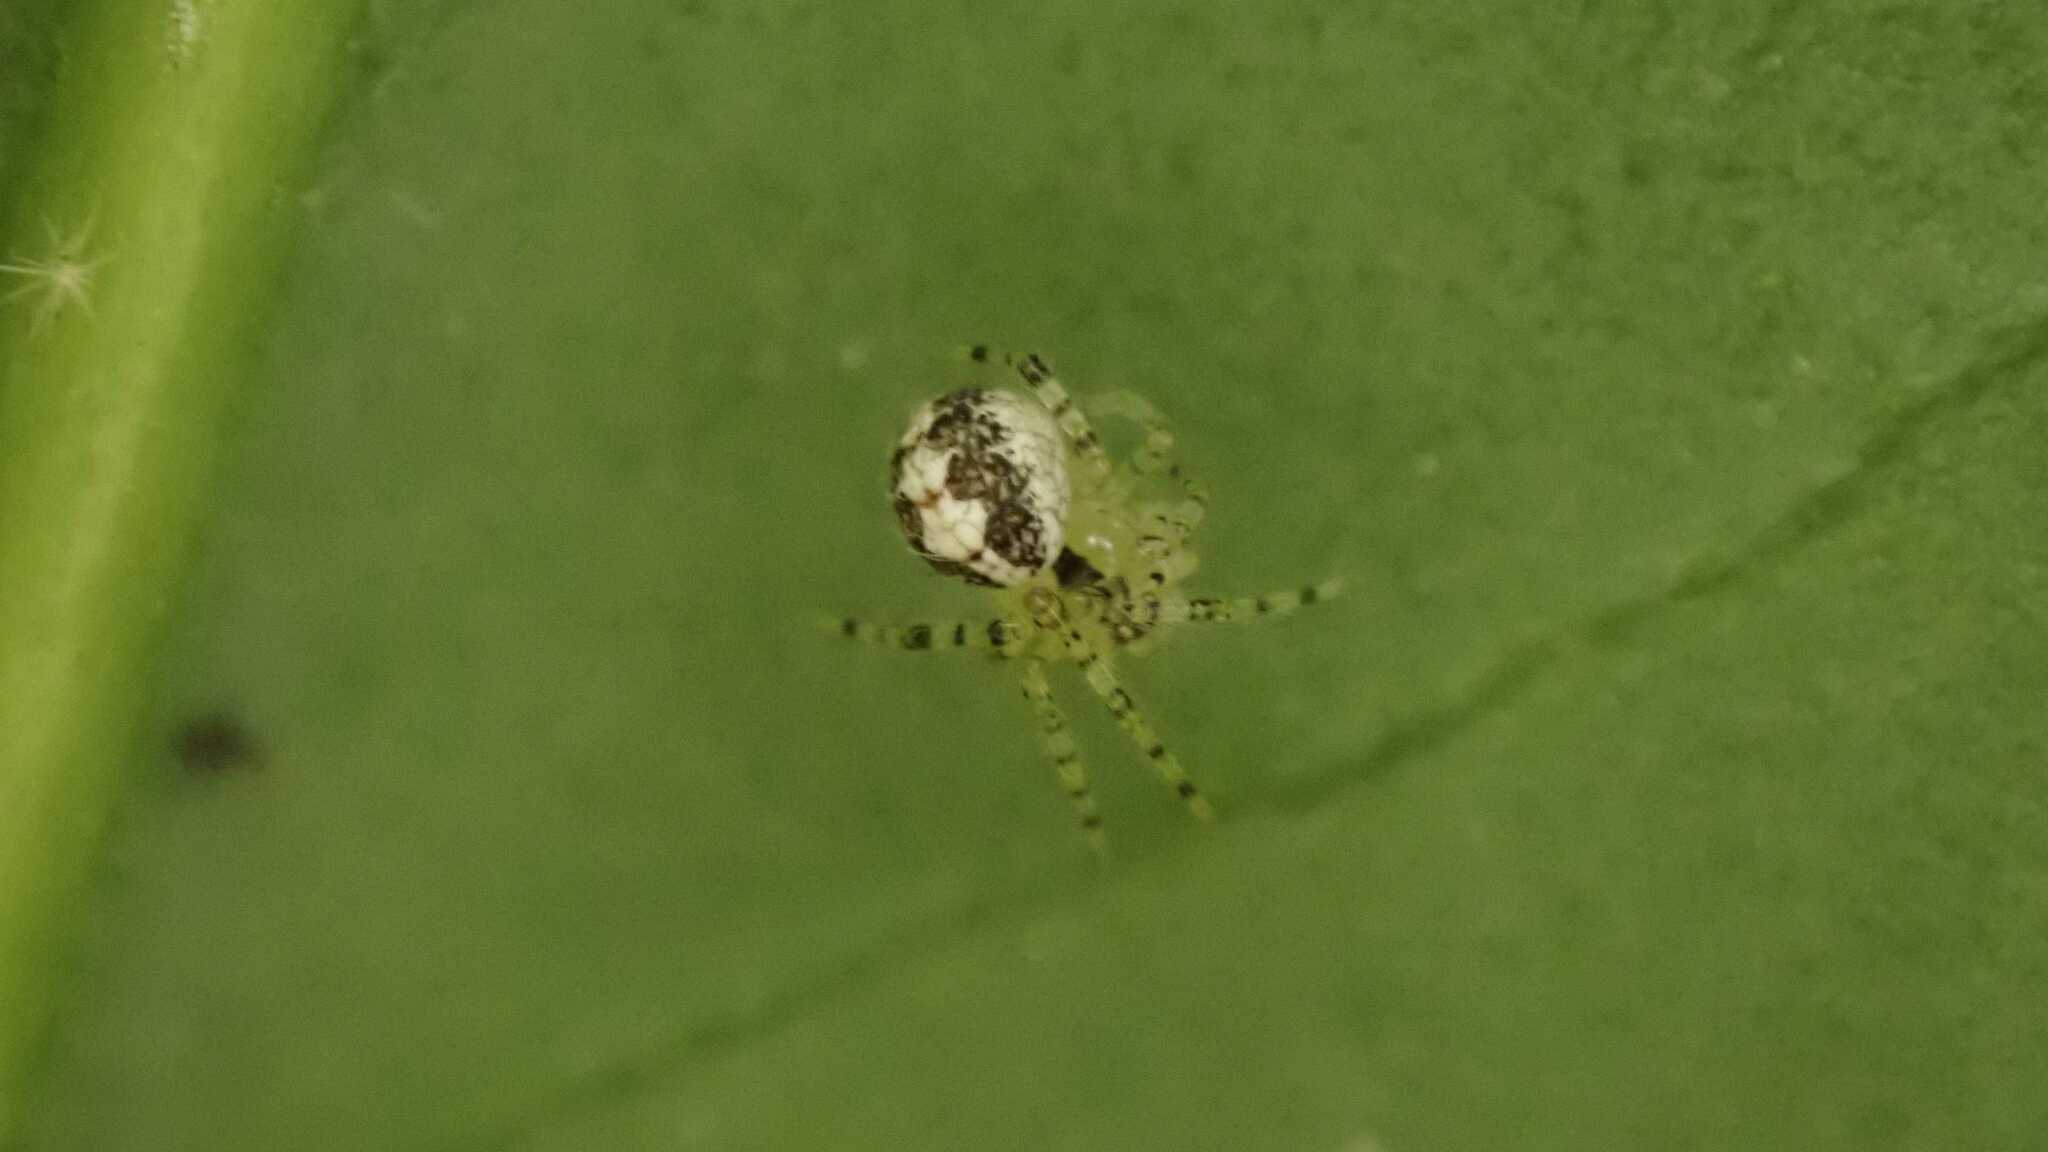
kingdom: Animalia
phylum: Arthropoda
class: Arachnida
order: Araneae
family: Theridiidae
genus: Theridion
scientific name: Theridion varians
